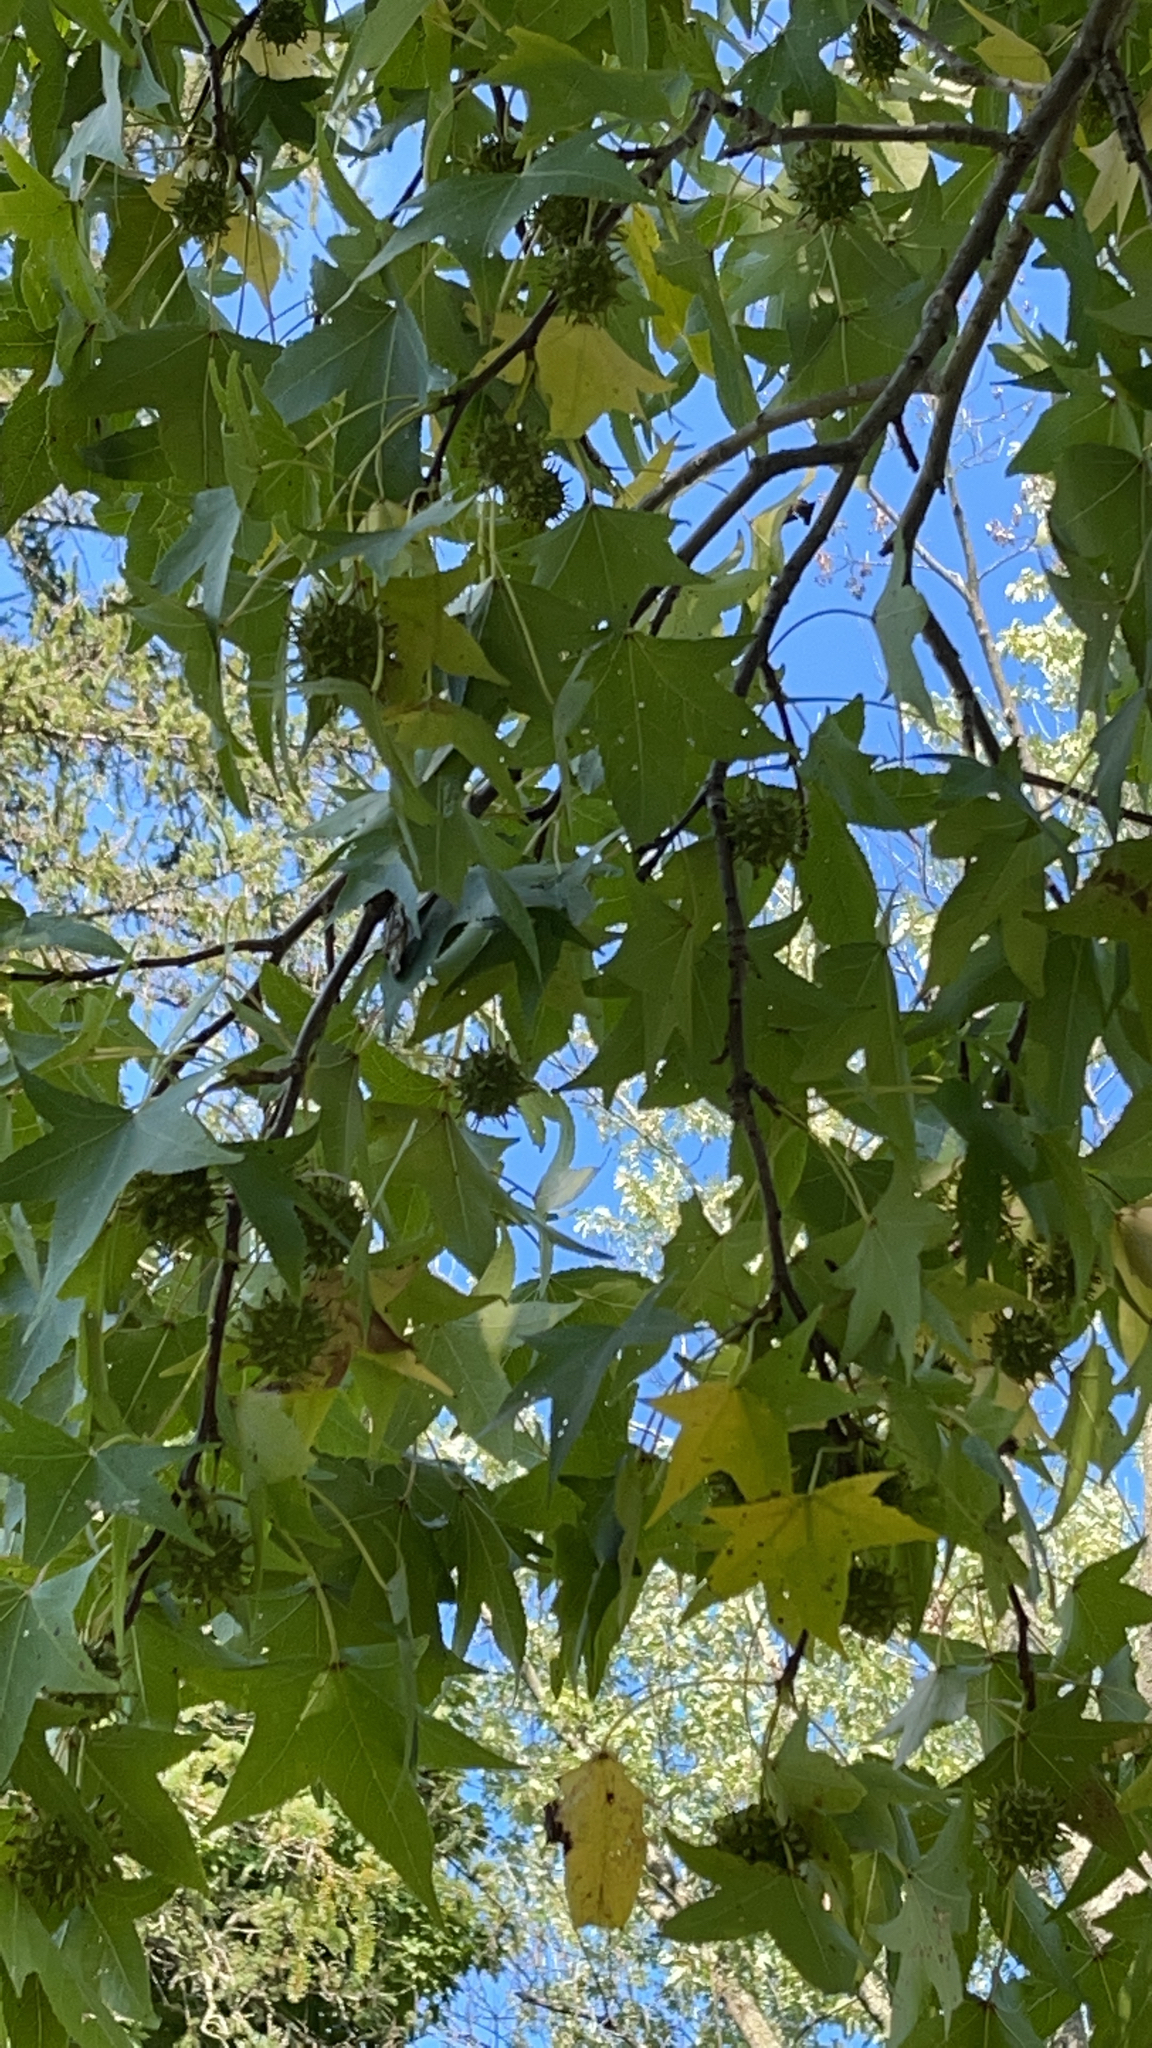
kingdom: Plantae
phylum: Tracheophyta
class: Magnoliopsida
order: Saxifragales
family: Altingiaceae
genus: Liquidambar
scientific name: Liquidambar styraciflua
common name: Sweet gum
